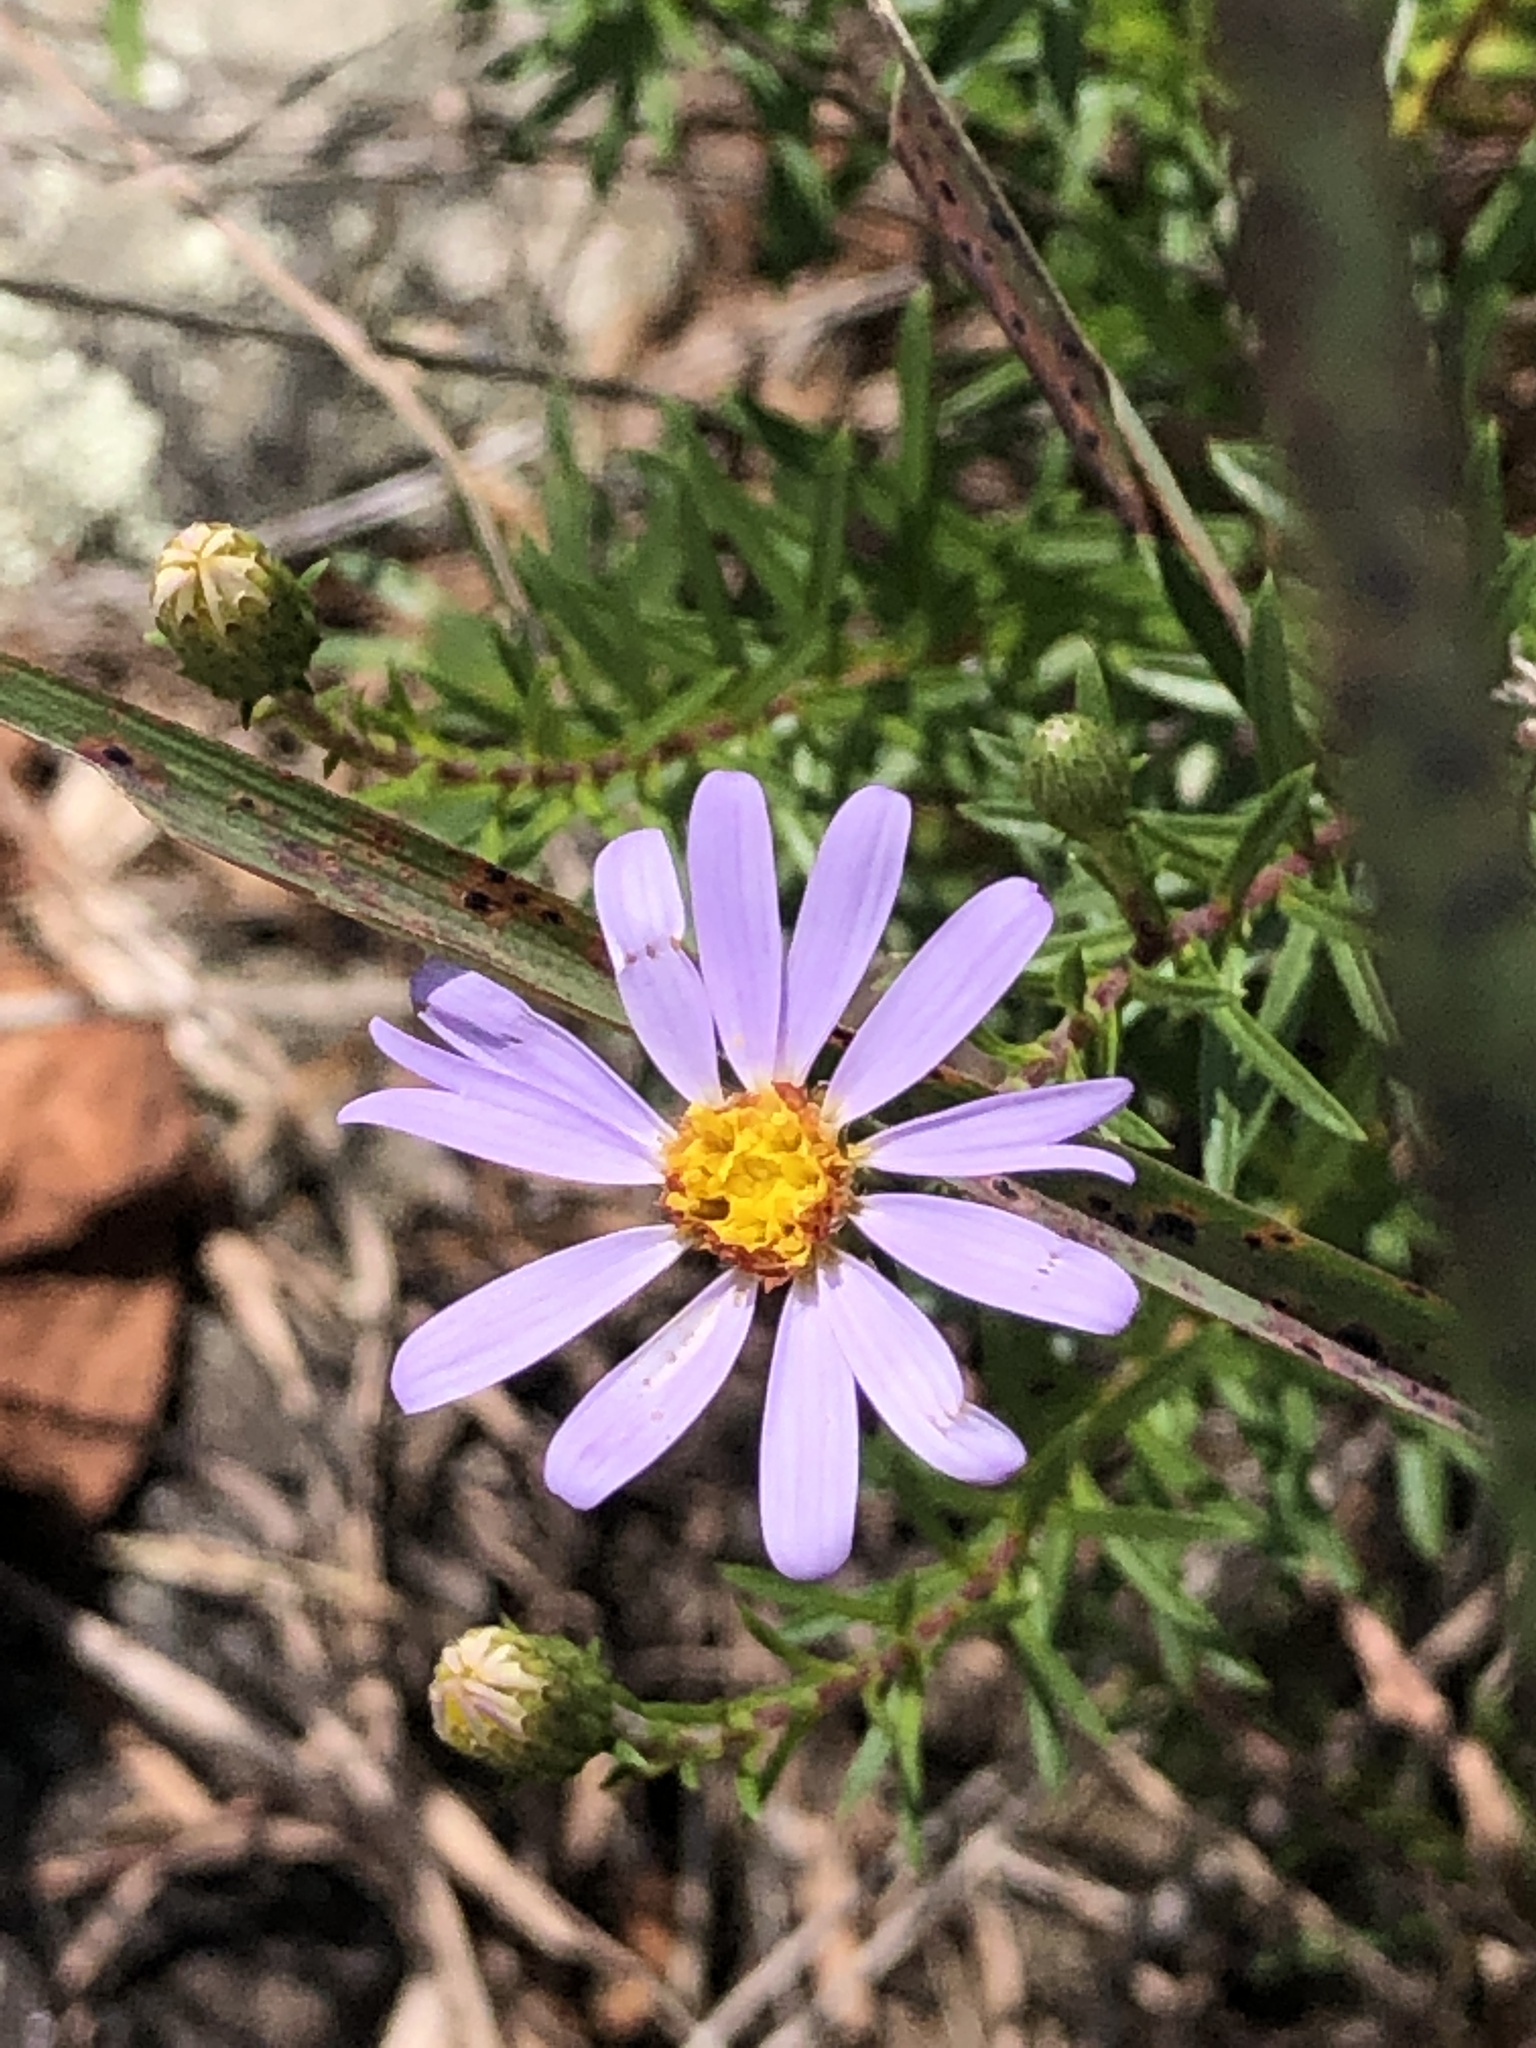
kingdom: Plantae
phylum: Tracheophyta
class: Magnoliopsida
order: Asterales
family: Asteraceae
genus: Ionactis
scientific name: Ionactis linariifolia
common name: Flax-leaf aster
